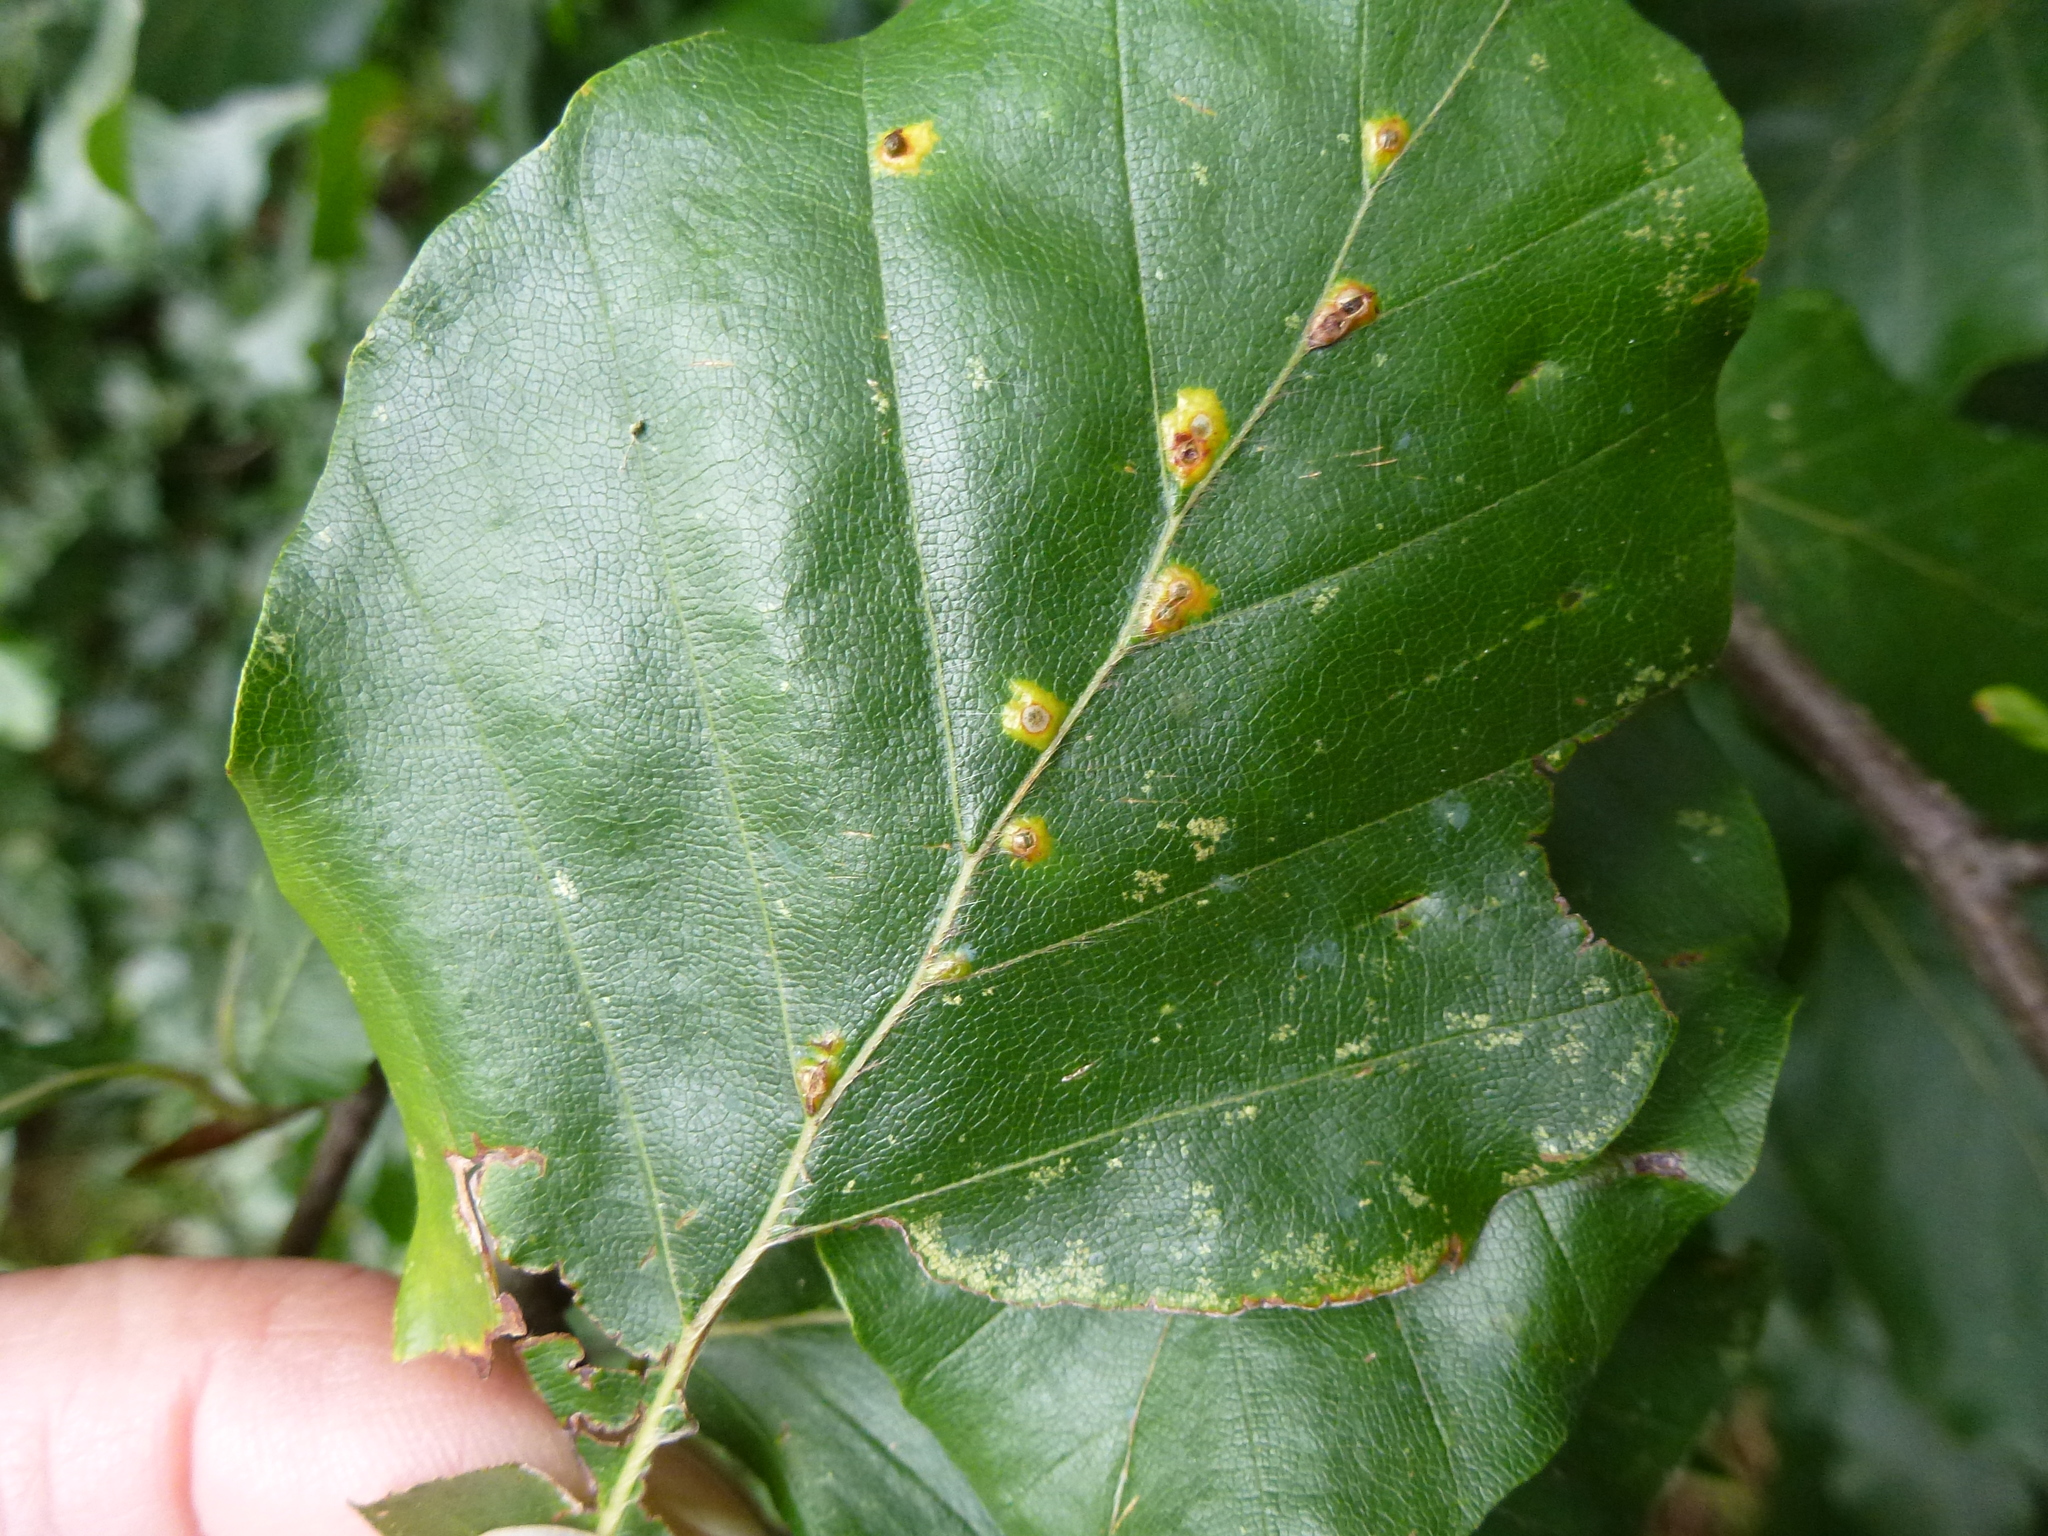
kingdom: Animalia
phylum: Arthropoda
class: Insecta
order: Diptera
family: Cecidomyiidae
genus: Hartigiola
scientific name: Hartigiola annulipes
